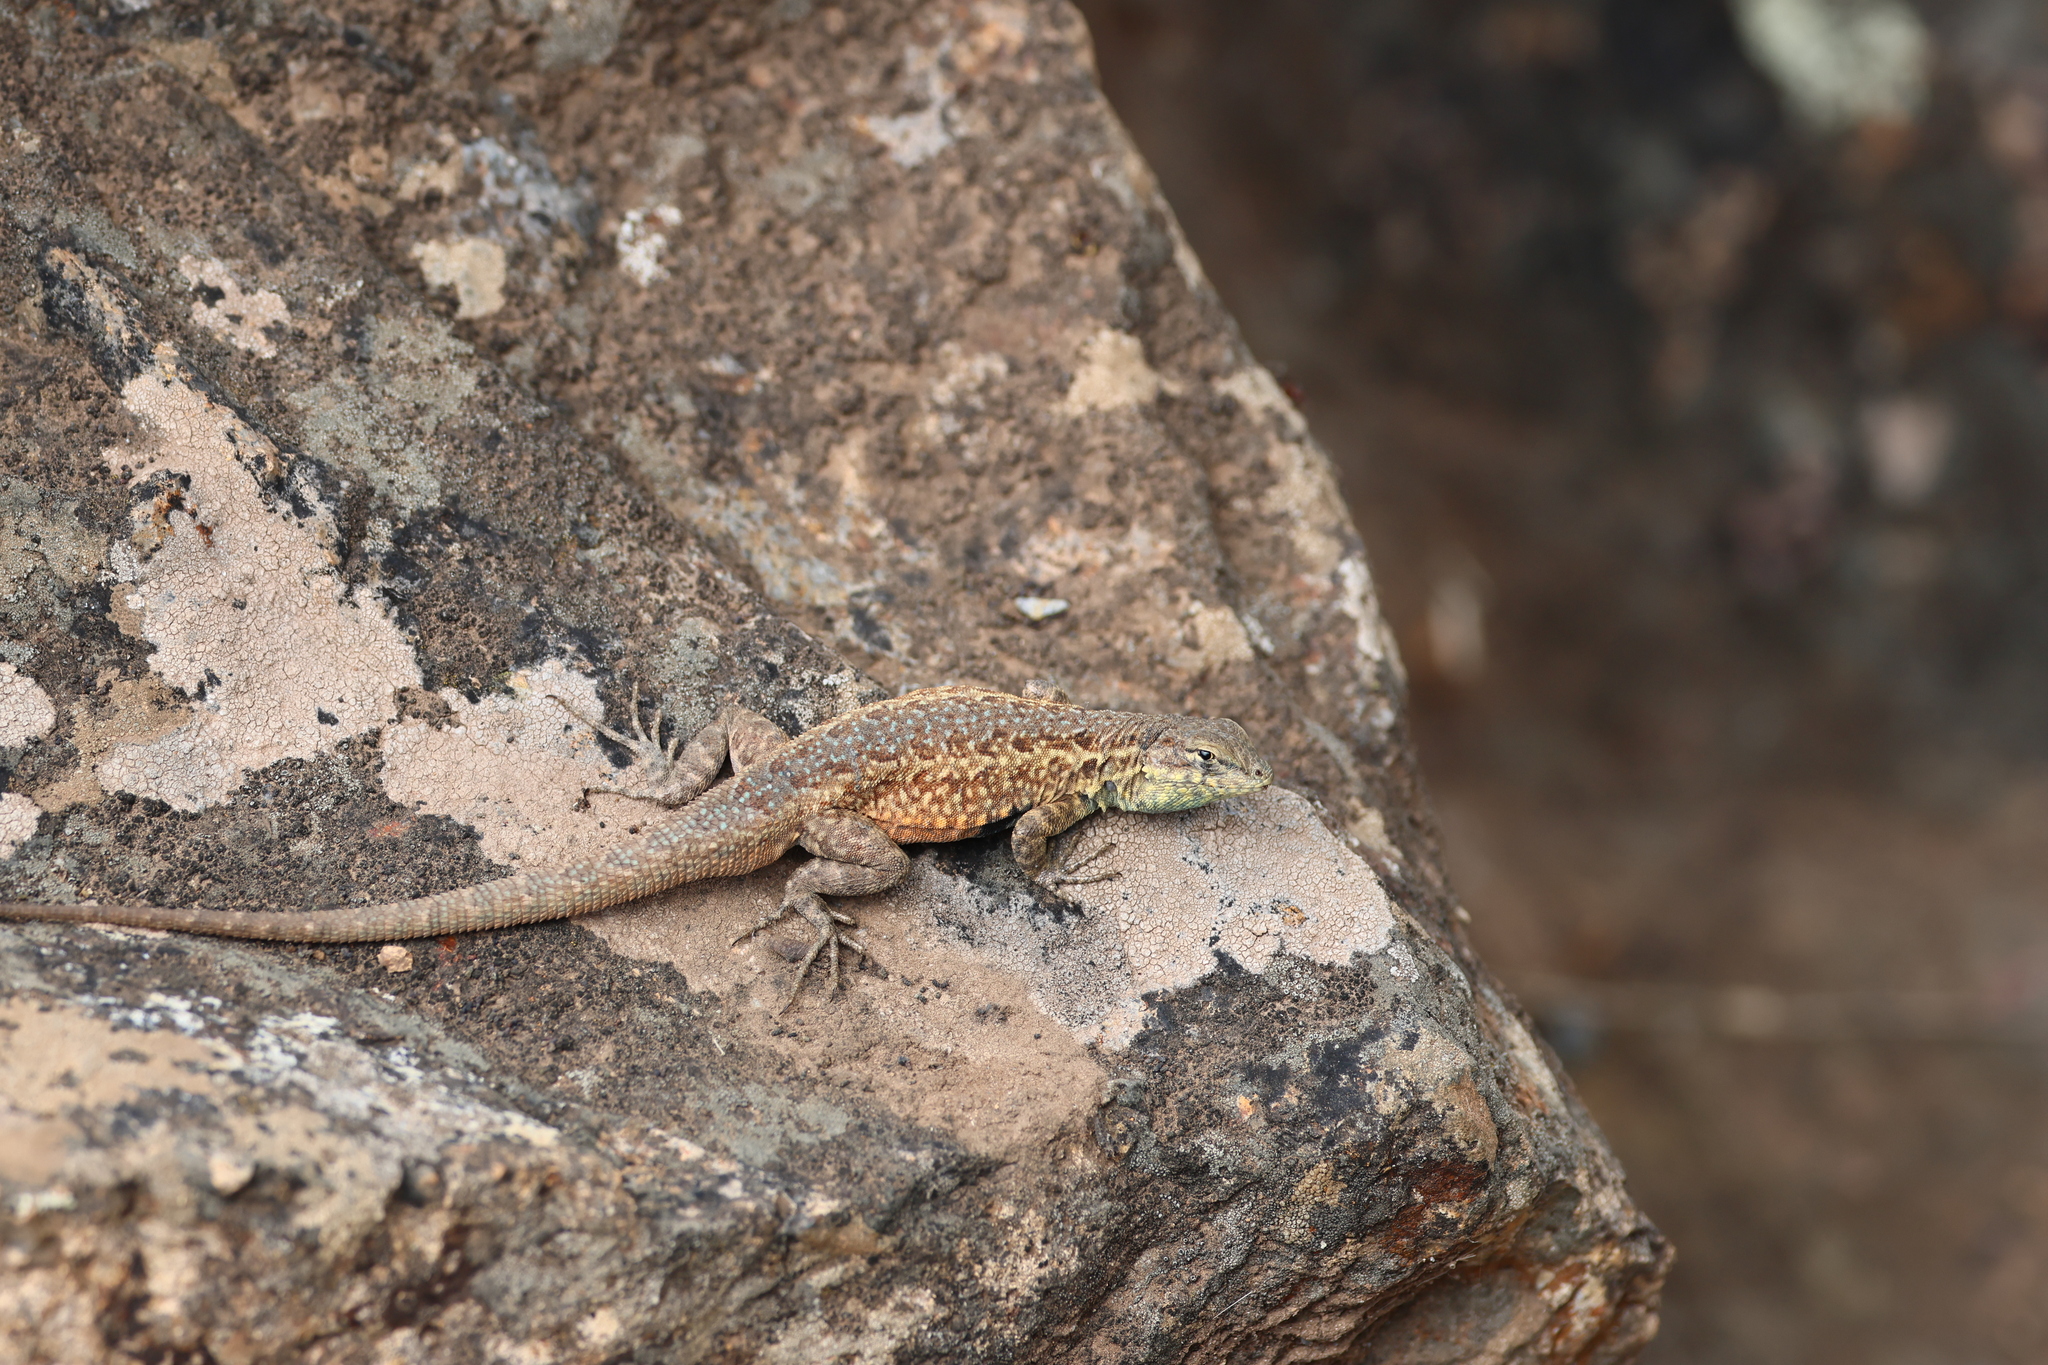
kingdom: Animalia
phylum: Chordata
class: Squamata
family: Phrynosomatidae
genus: Uta
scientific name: Uta stansburiana
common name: Side-blotched lizard
